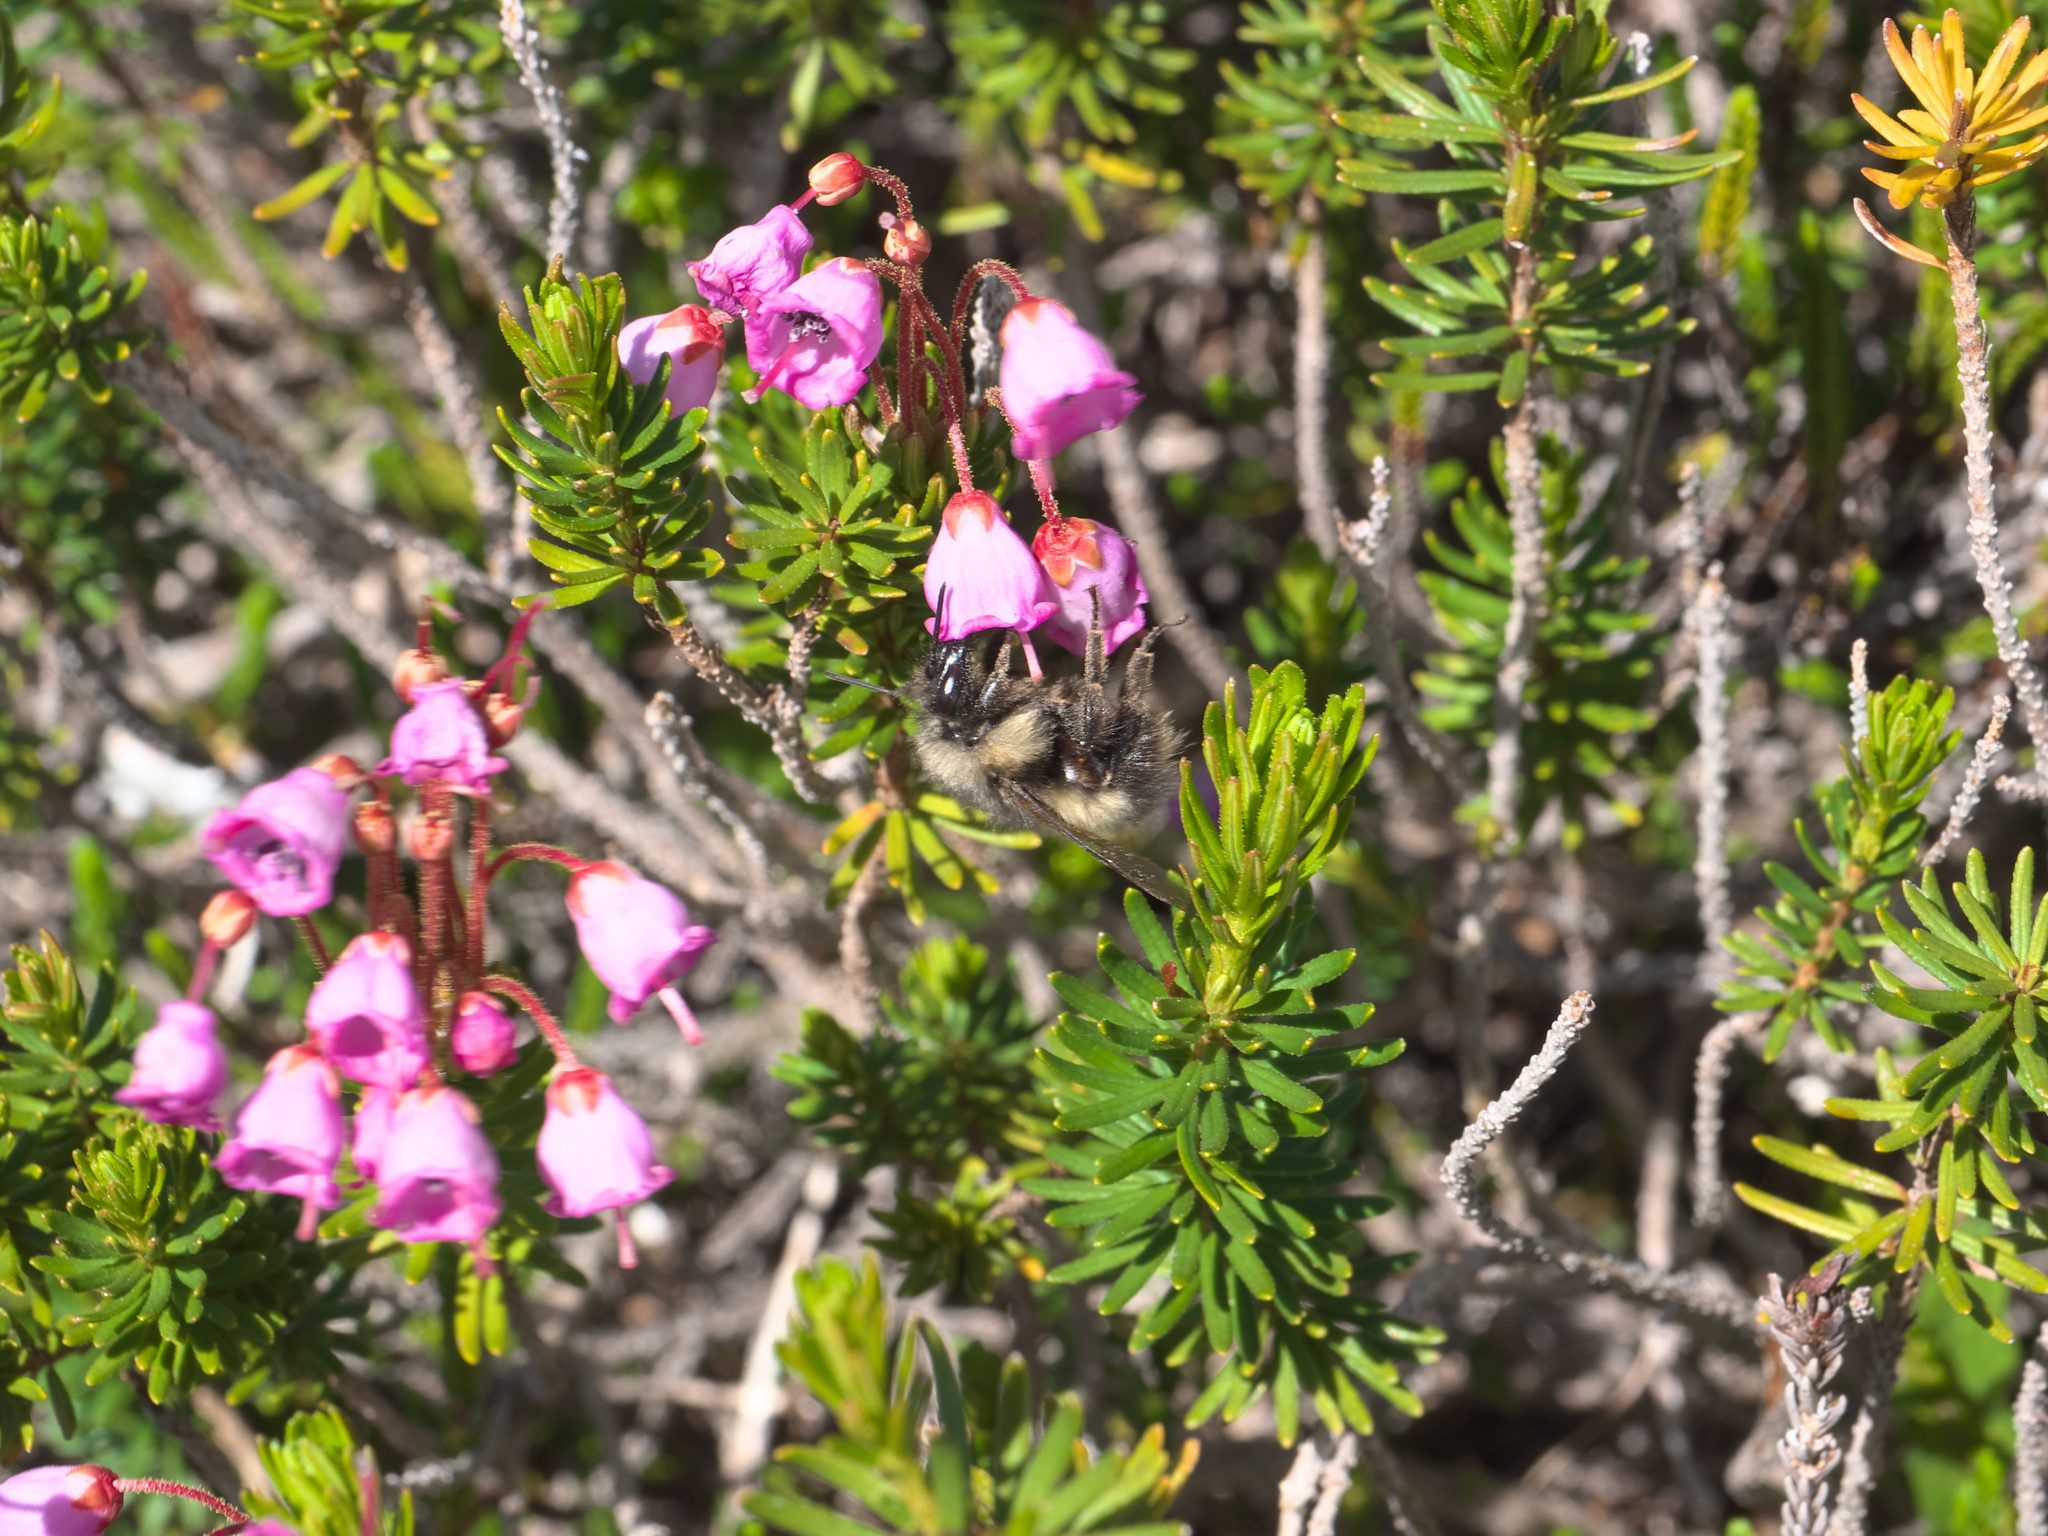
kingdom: Plantae
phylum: Tracheophyta
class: Magnoliopsida
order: Ericales
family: Ericaceae
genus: Phyllodoce
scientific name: Phyllodoce empetriformis
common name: Pink mountain heather
